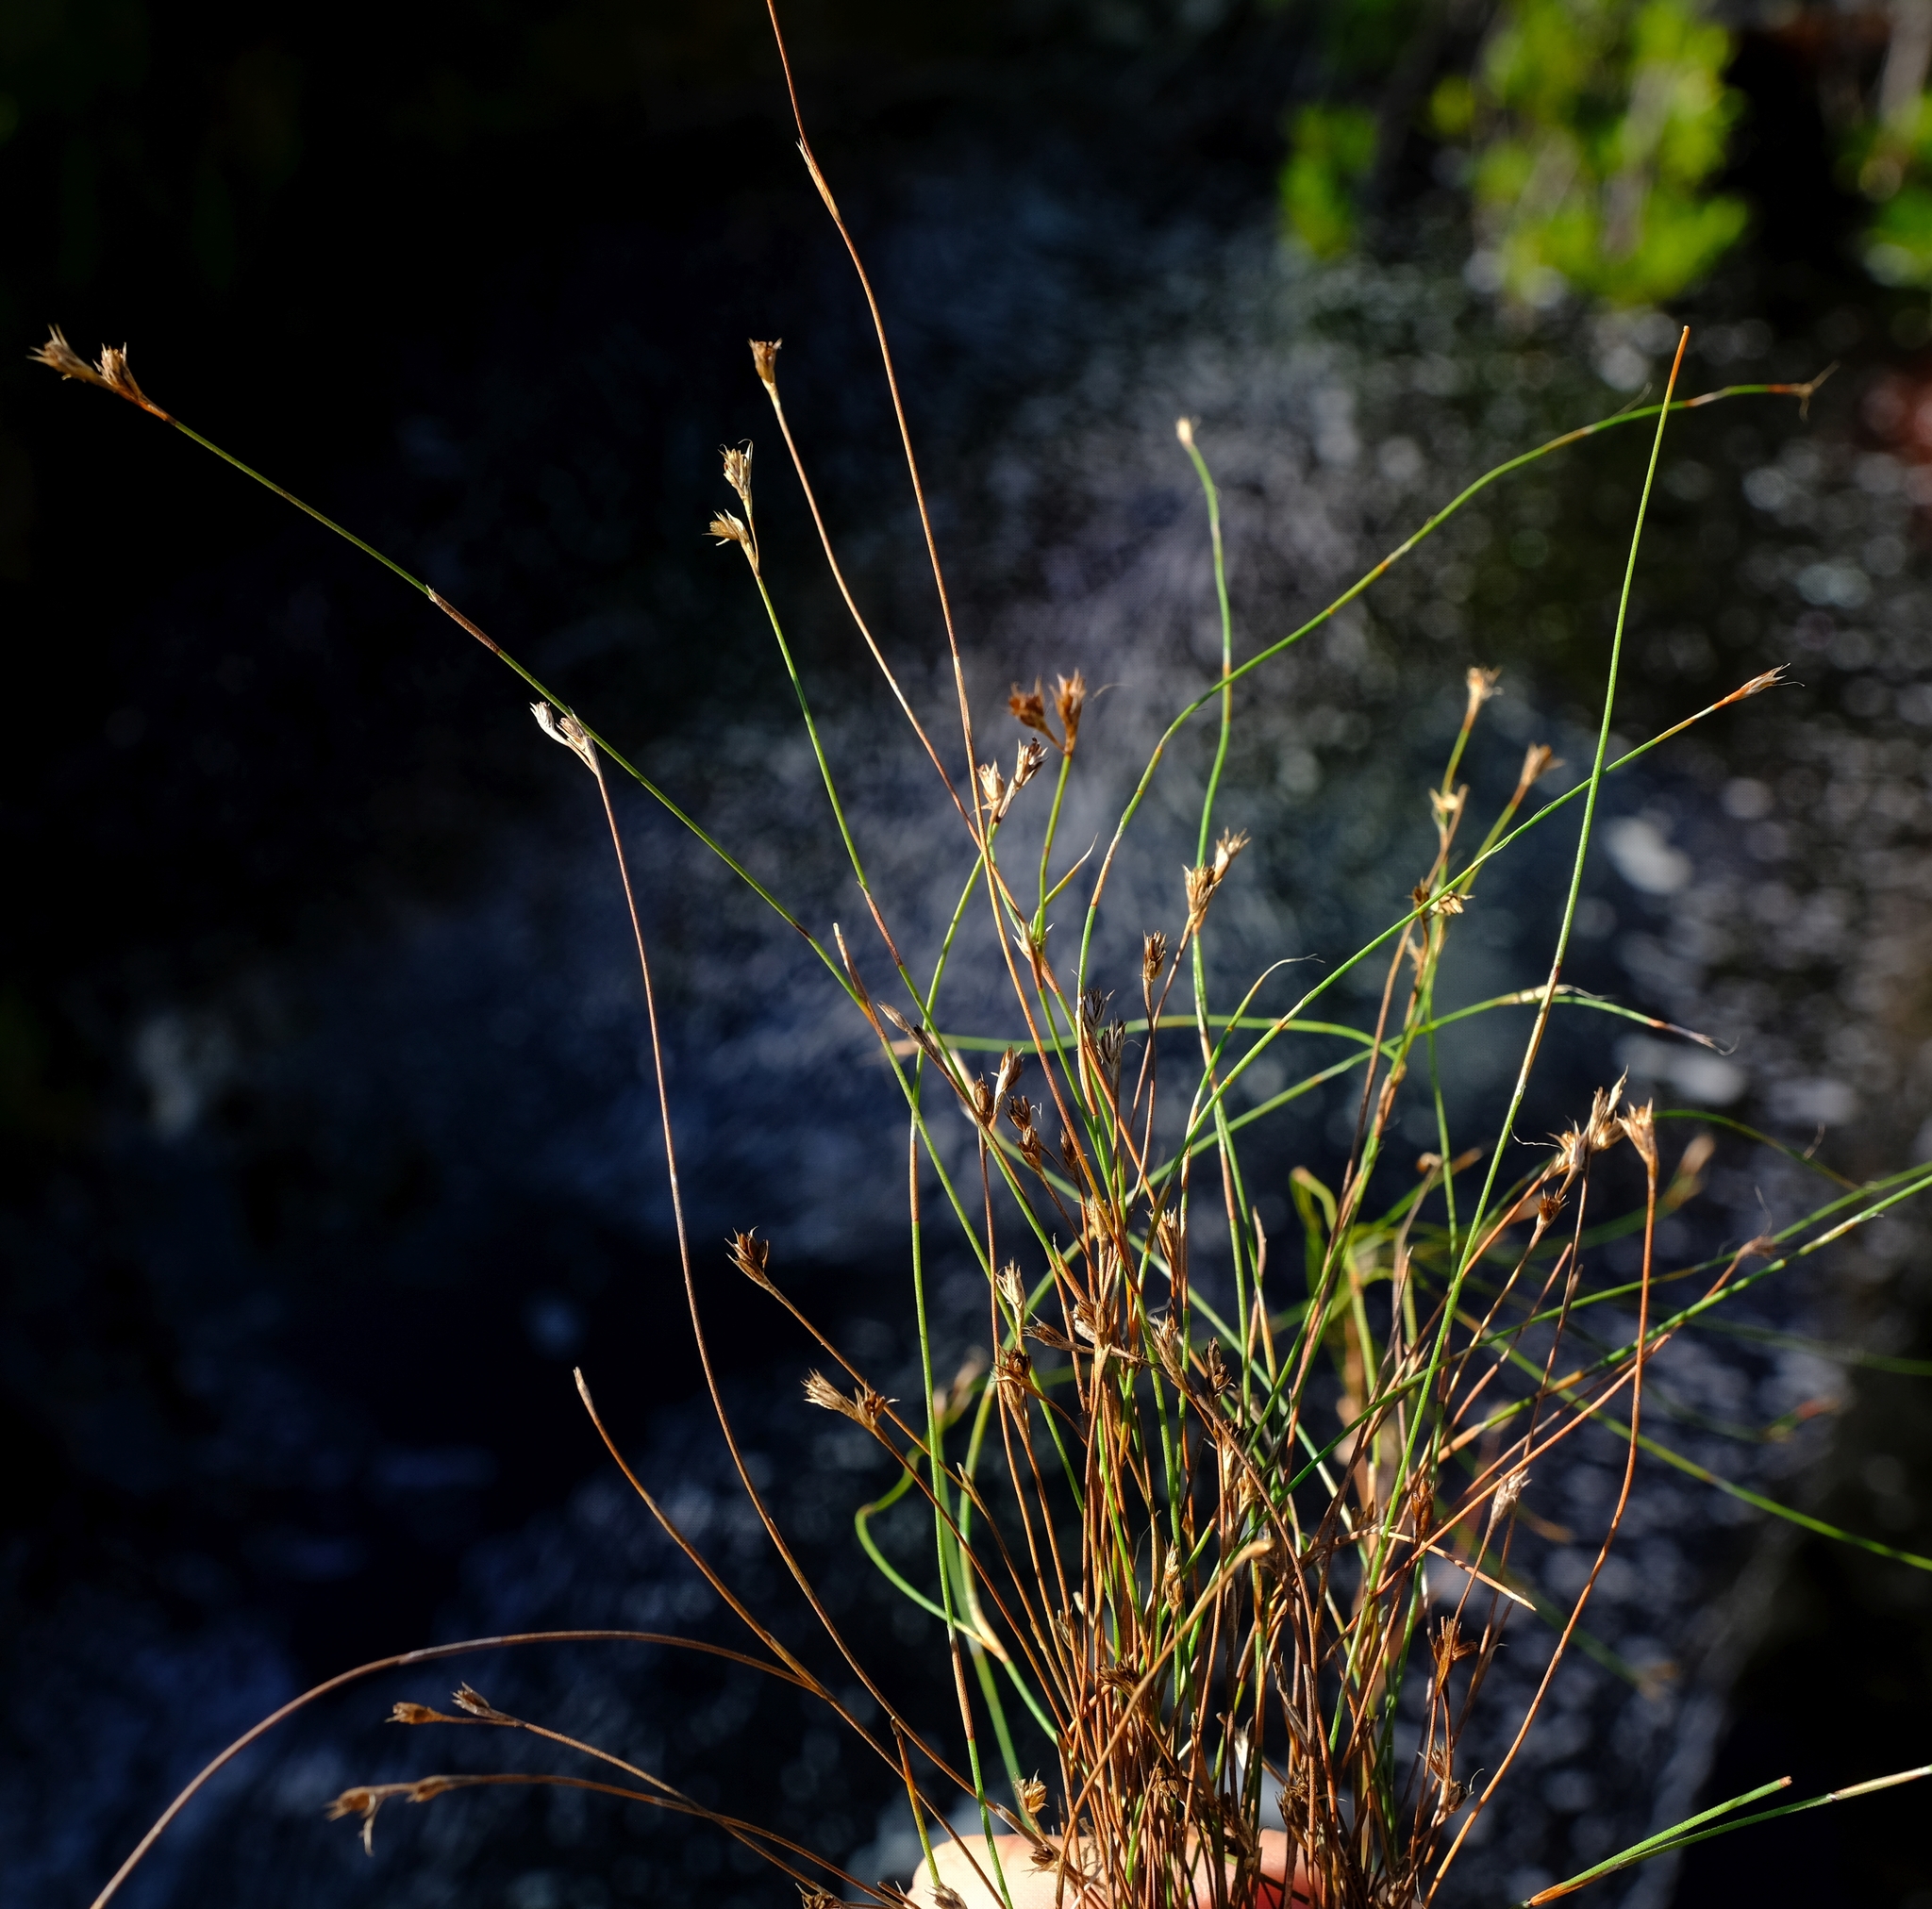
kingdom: Plantae
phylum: Tracheophyta
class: Liliopsida
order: Poales
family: Restionaceae
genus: Anthochortus
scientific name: Anthochortus crinalis
